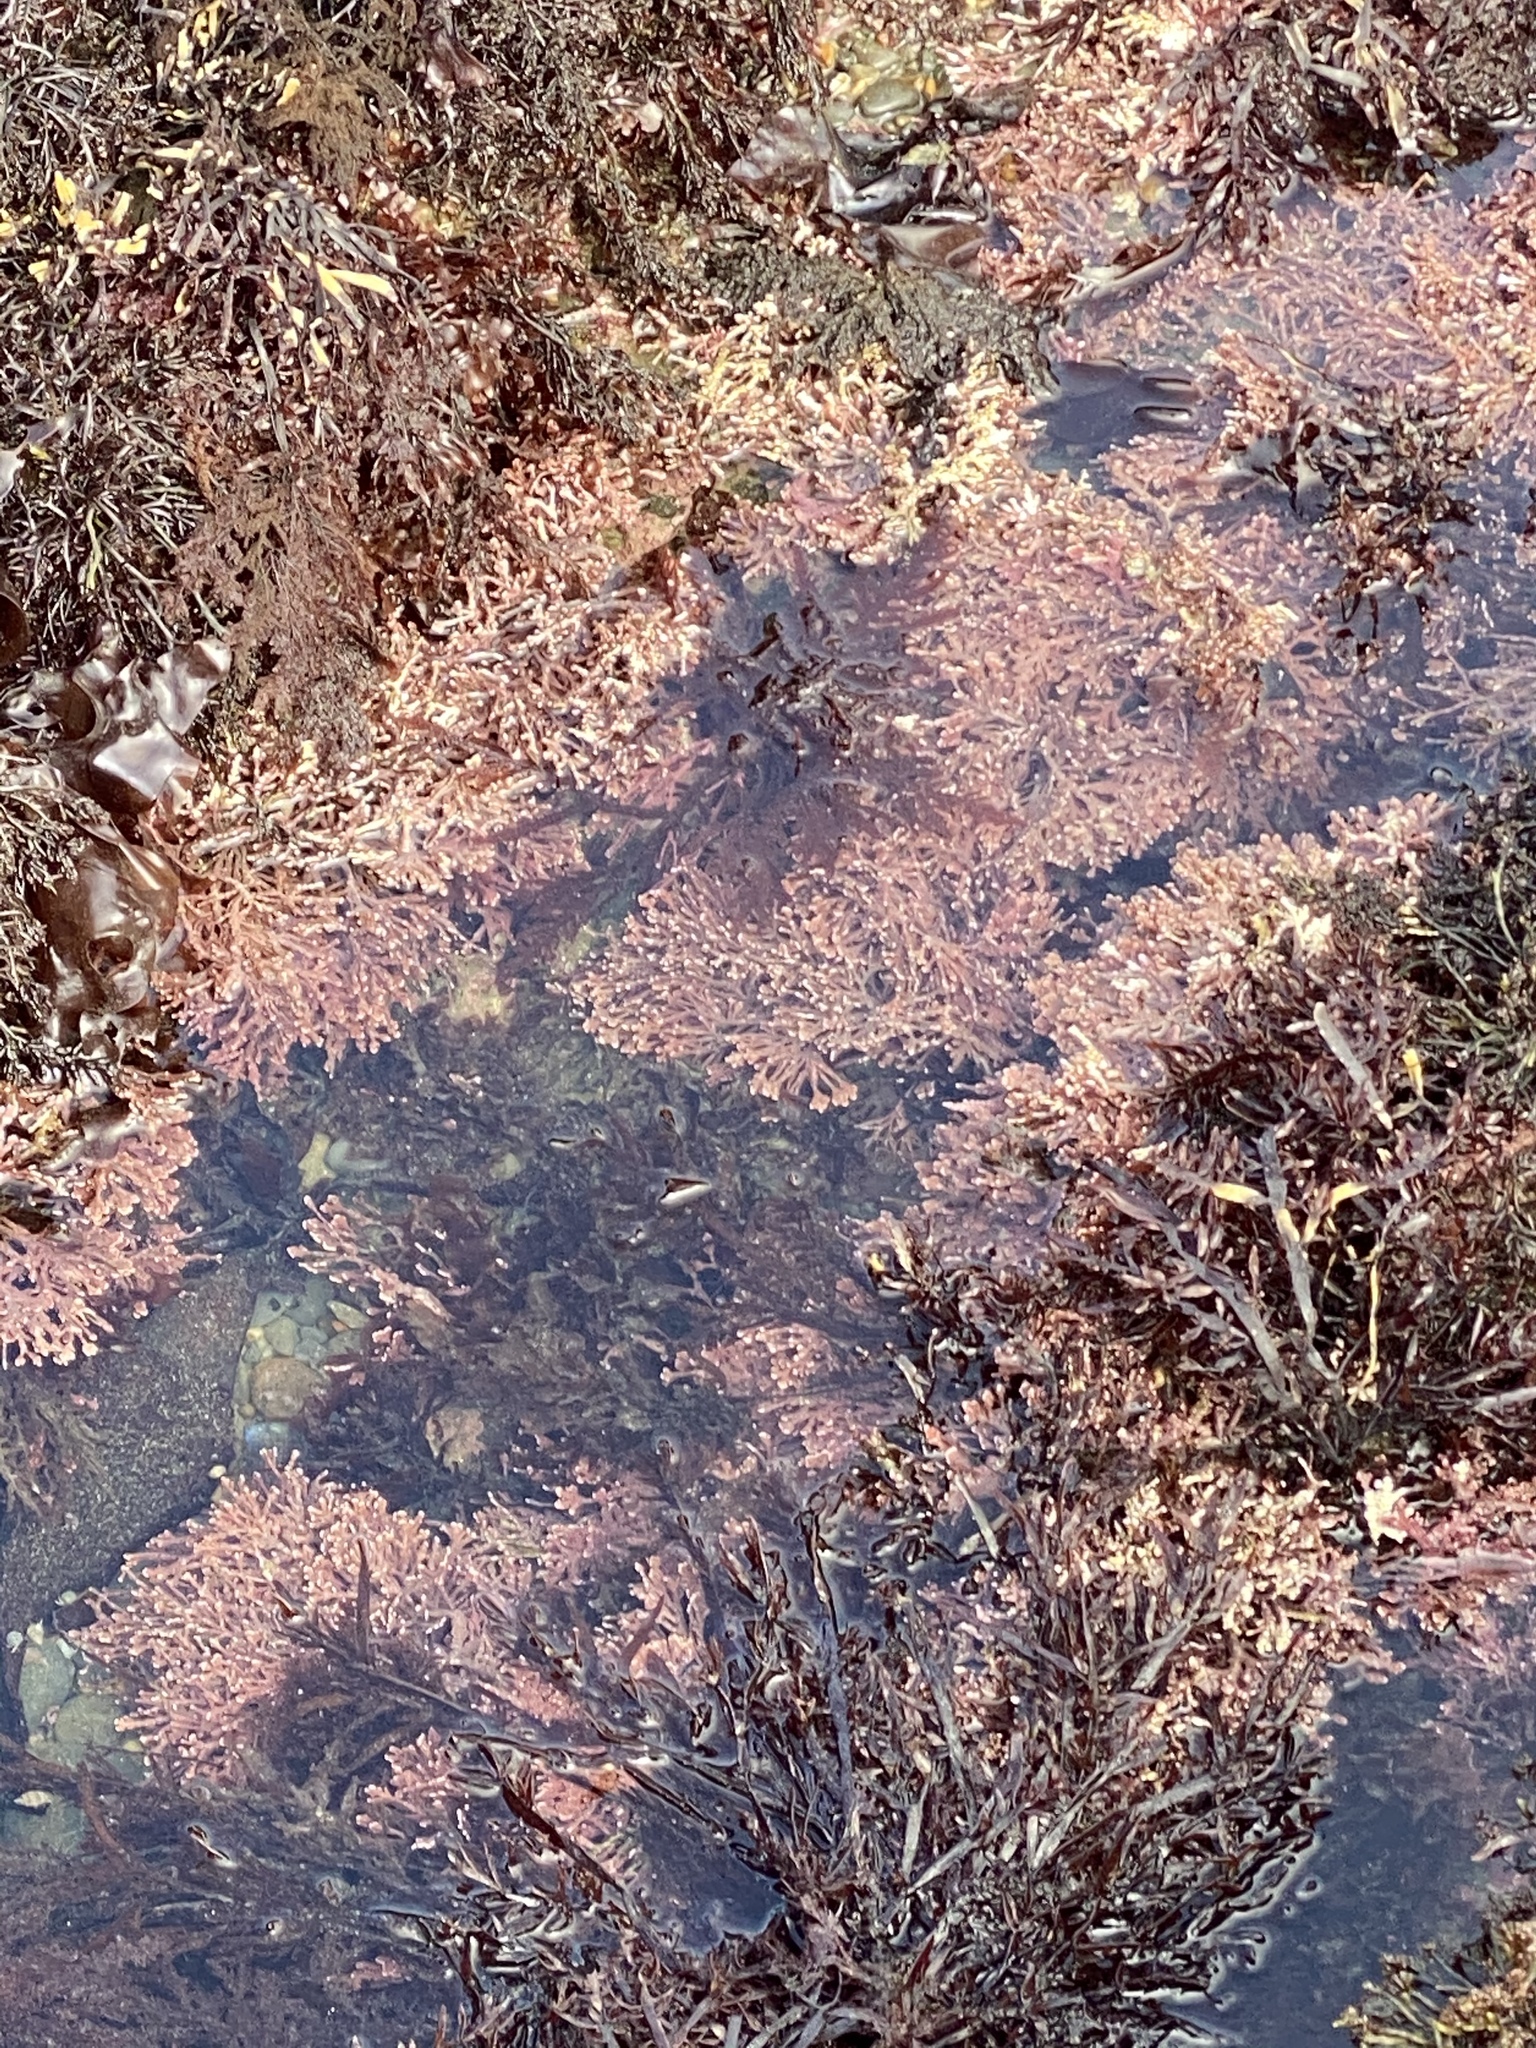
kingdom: Plantae
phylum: Rhodophyta
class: Florideophyceae
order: Corallinales
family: Corallinaceae
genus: Calliarthron
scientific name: Calliarthron tuberculosum
